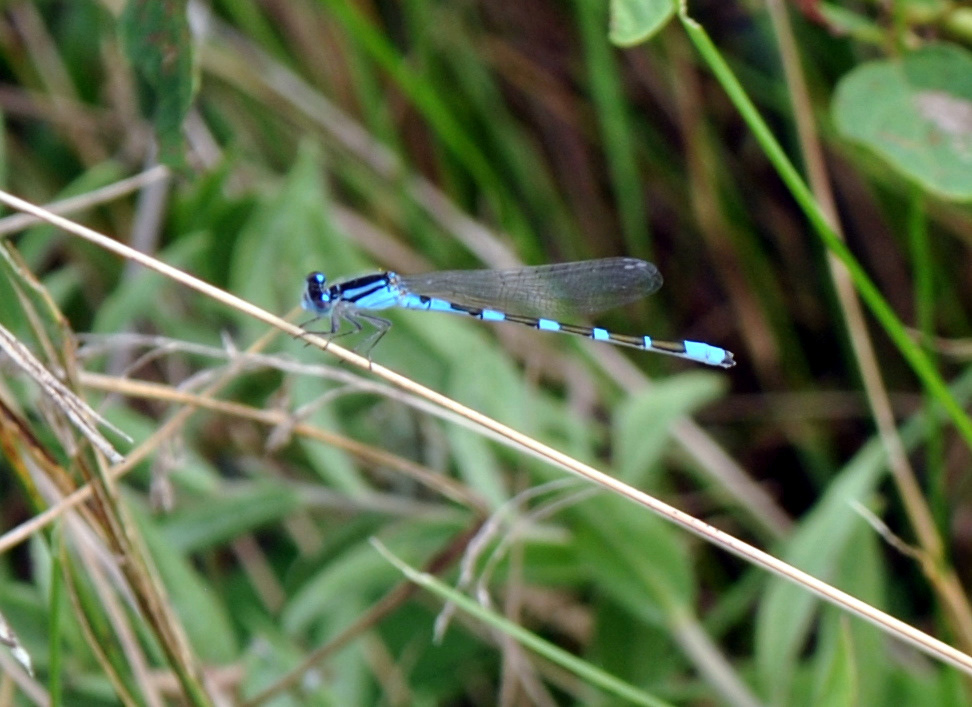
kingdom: Animalia
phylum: Arthropoda
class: Insecta
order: Odonata
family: Coenagrionidae
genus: Enallagma
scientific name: Enallagma carunculatum
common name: Tule bluet
